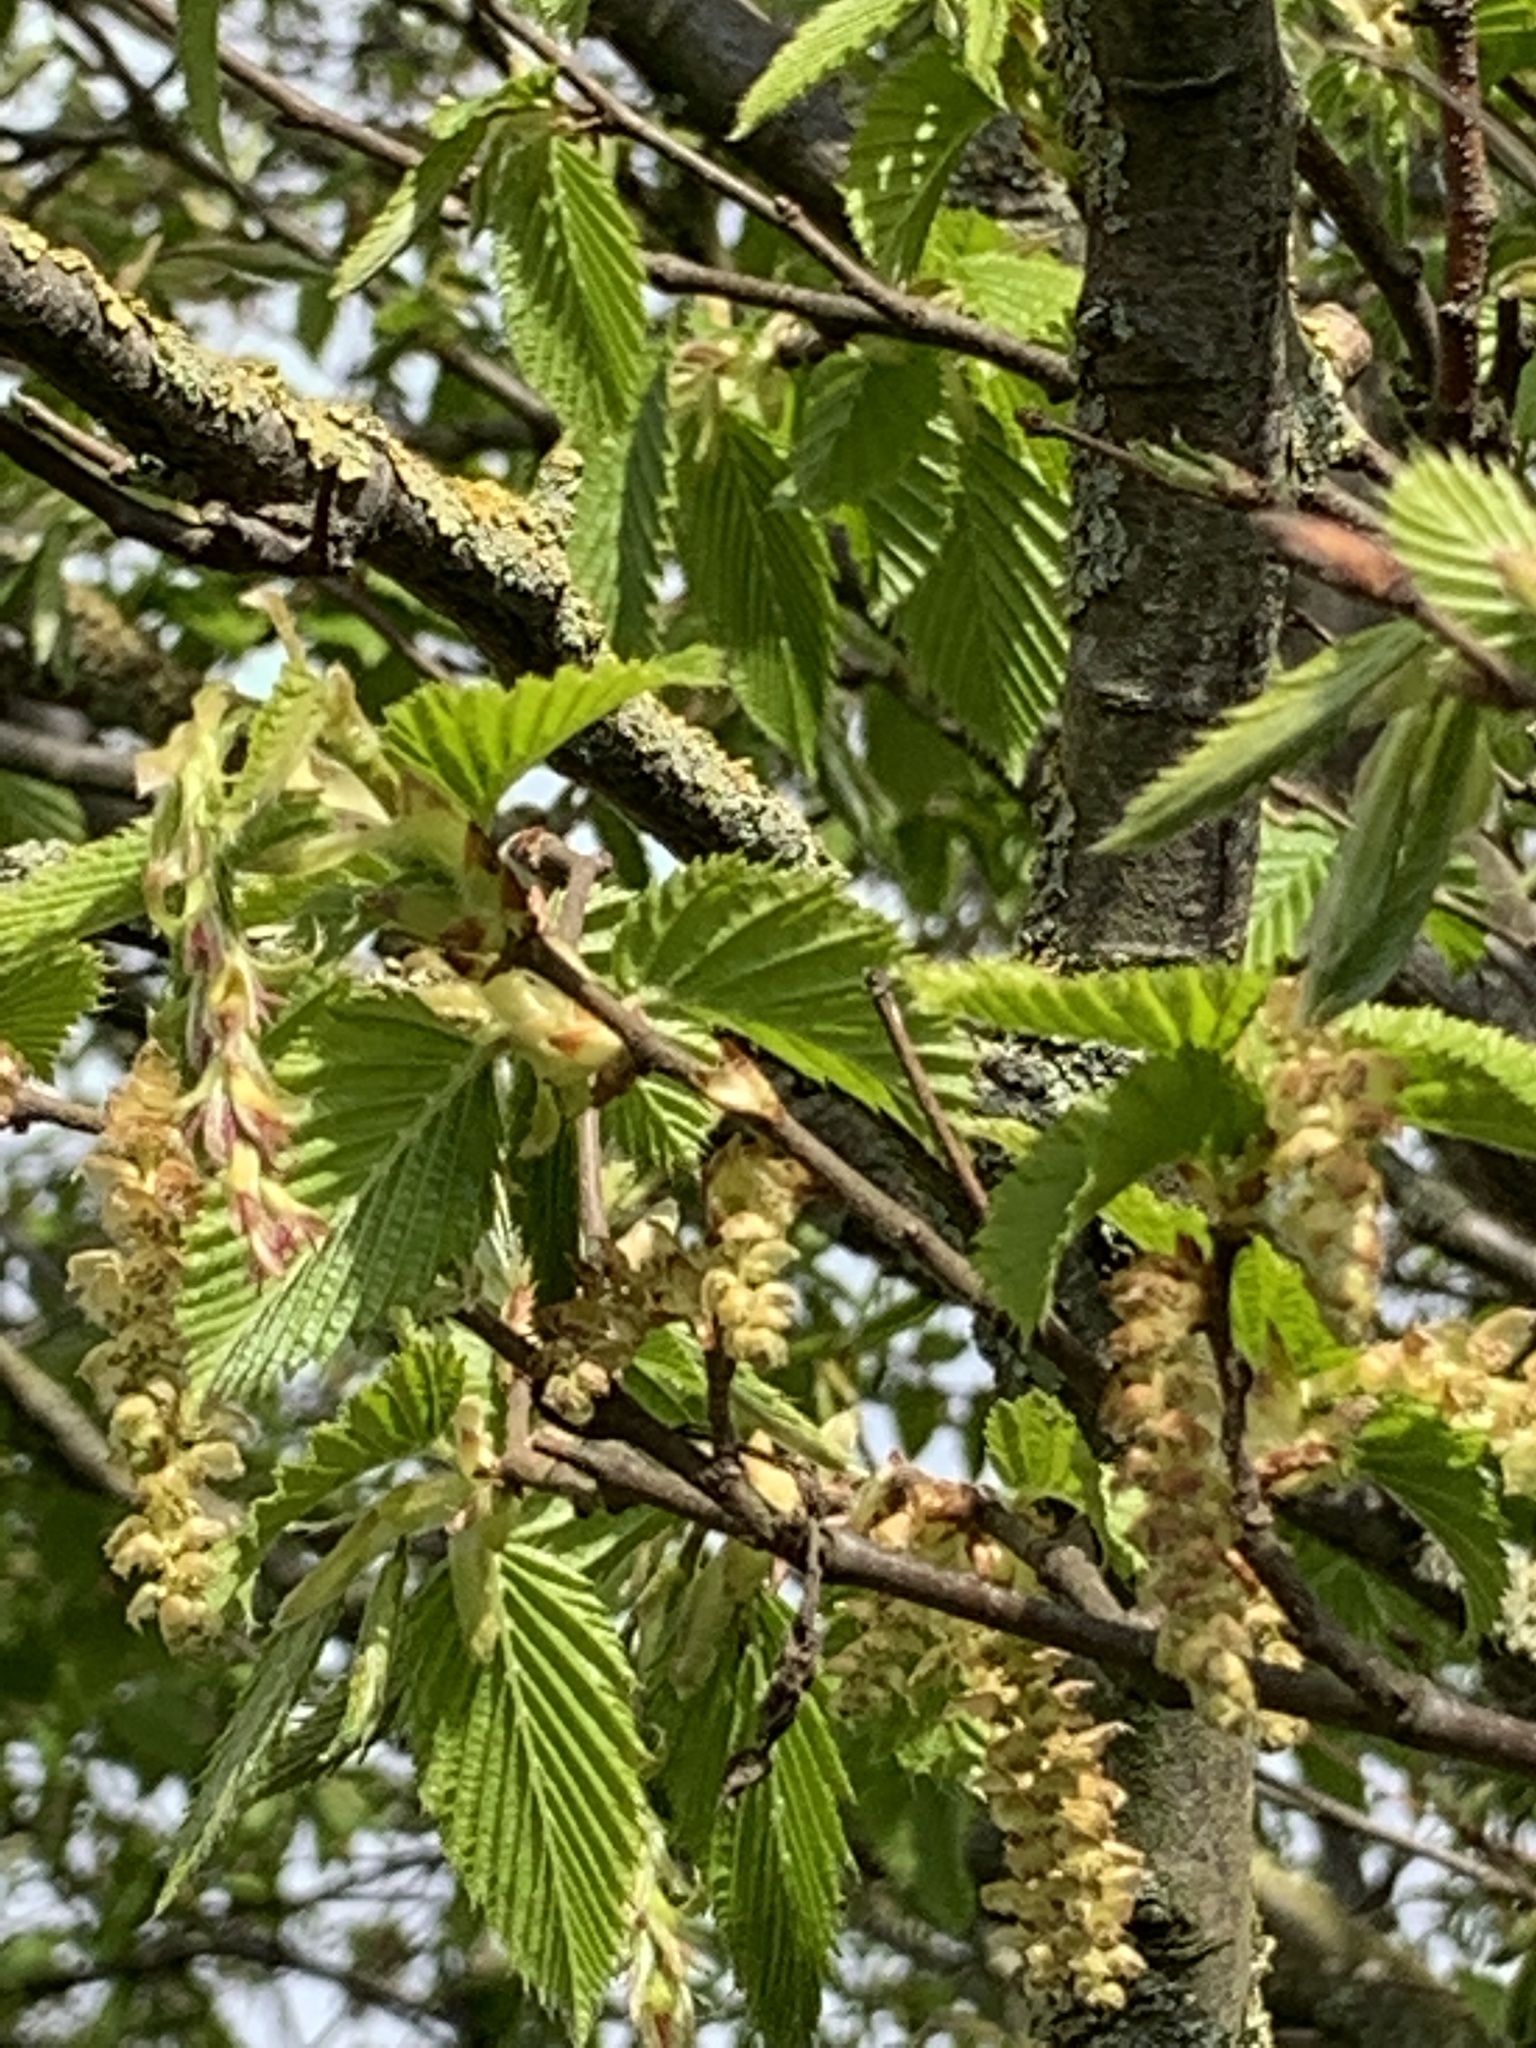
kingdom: Plantae
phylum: Tracheophyta
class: Magnoliopsida
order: Fagales
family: Betulaceae
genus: Carpinus
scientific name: Carpinus betulus
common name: Hornbeam
